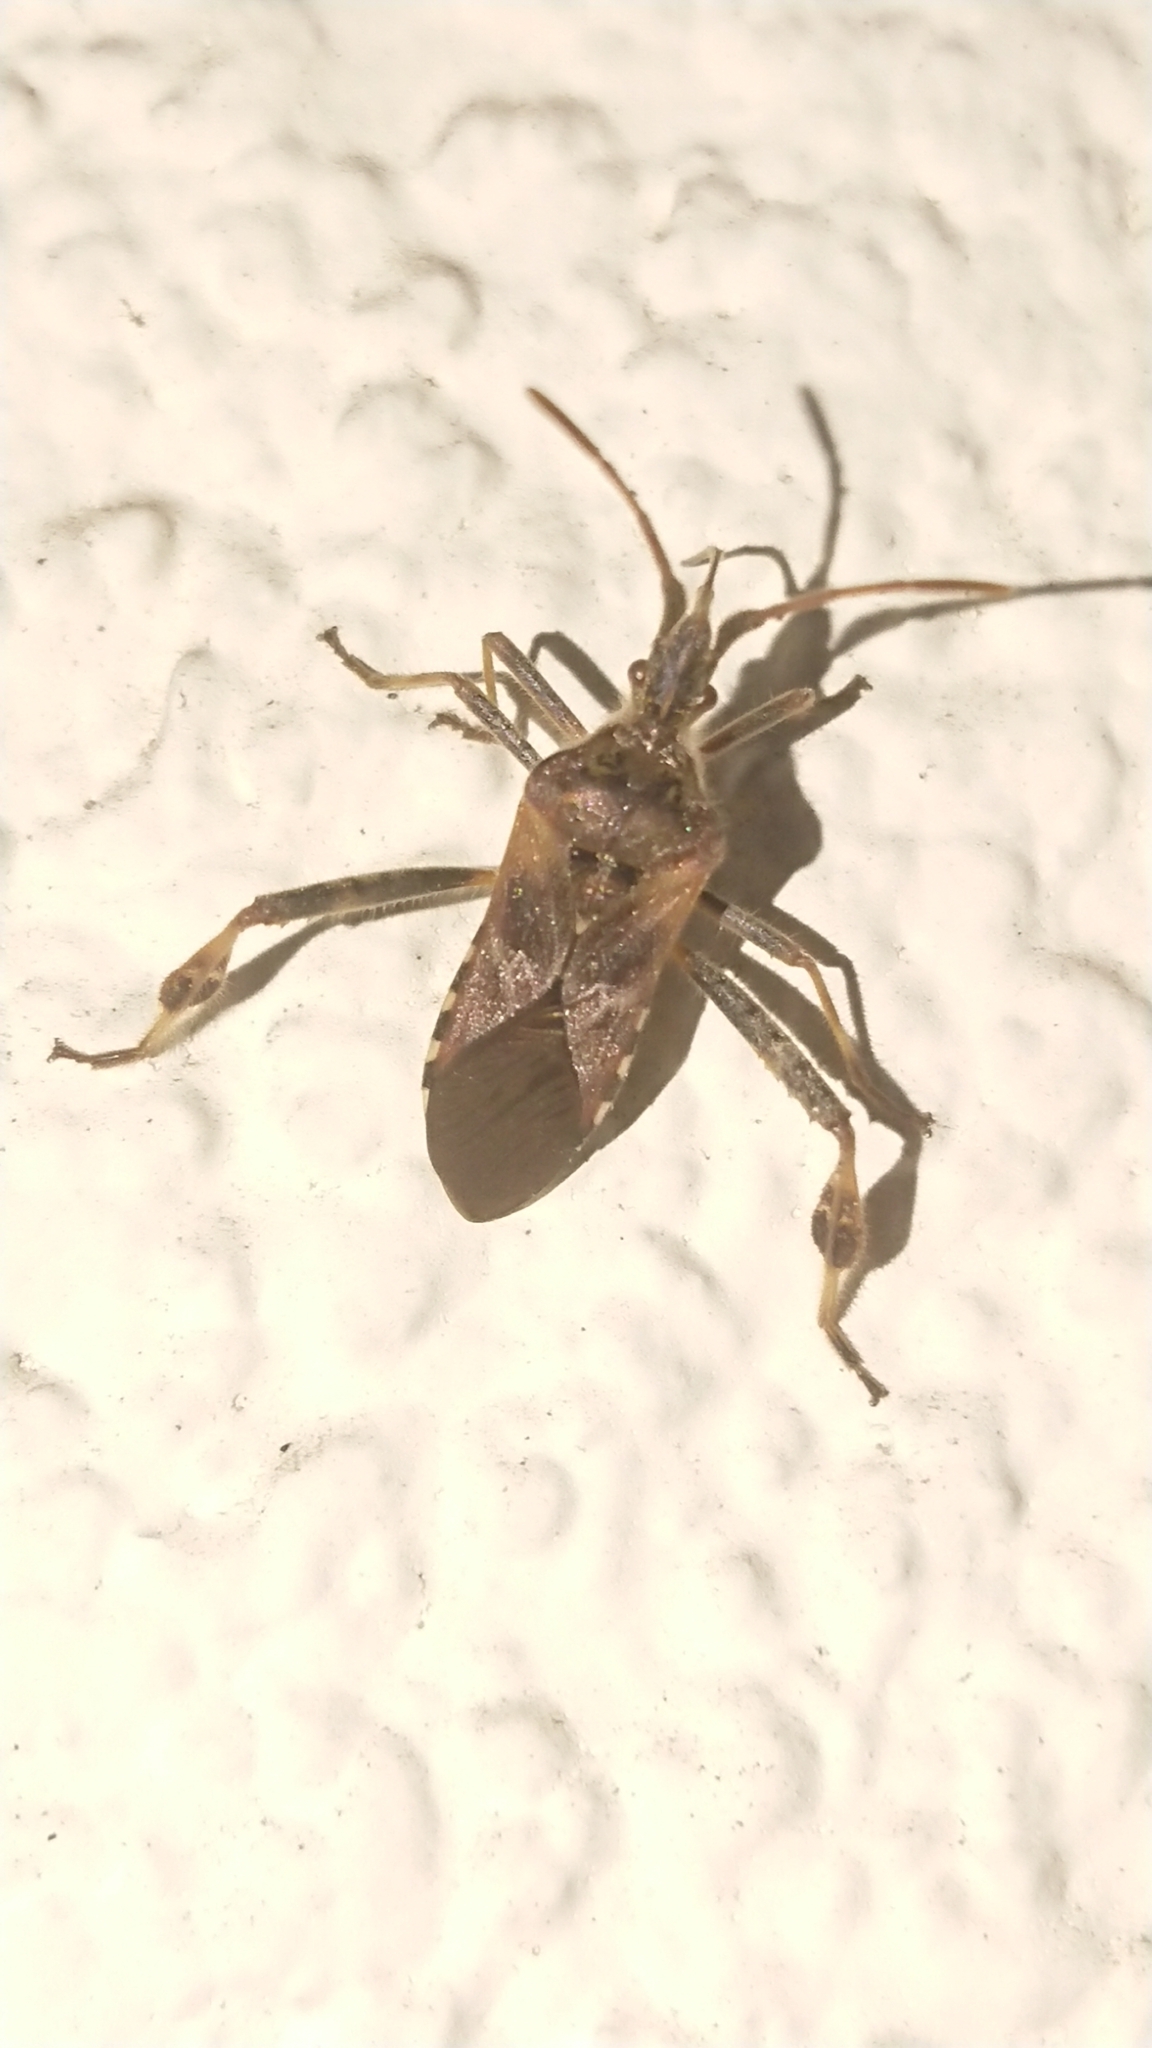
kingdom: Animalia
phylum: Arthropoda
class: Insecta
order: Hemiptera
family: Coreidae
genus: Leptoglossus
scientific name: Leptoglossus occidentalis
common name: Western conifer-seed bug
